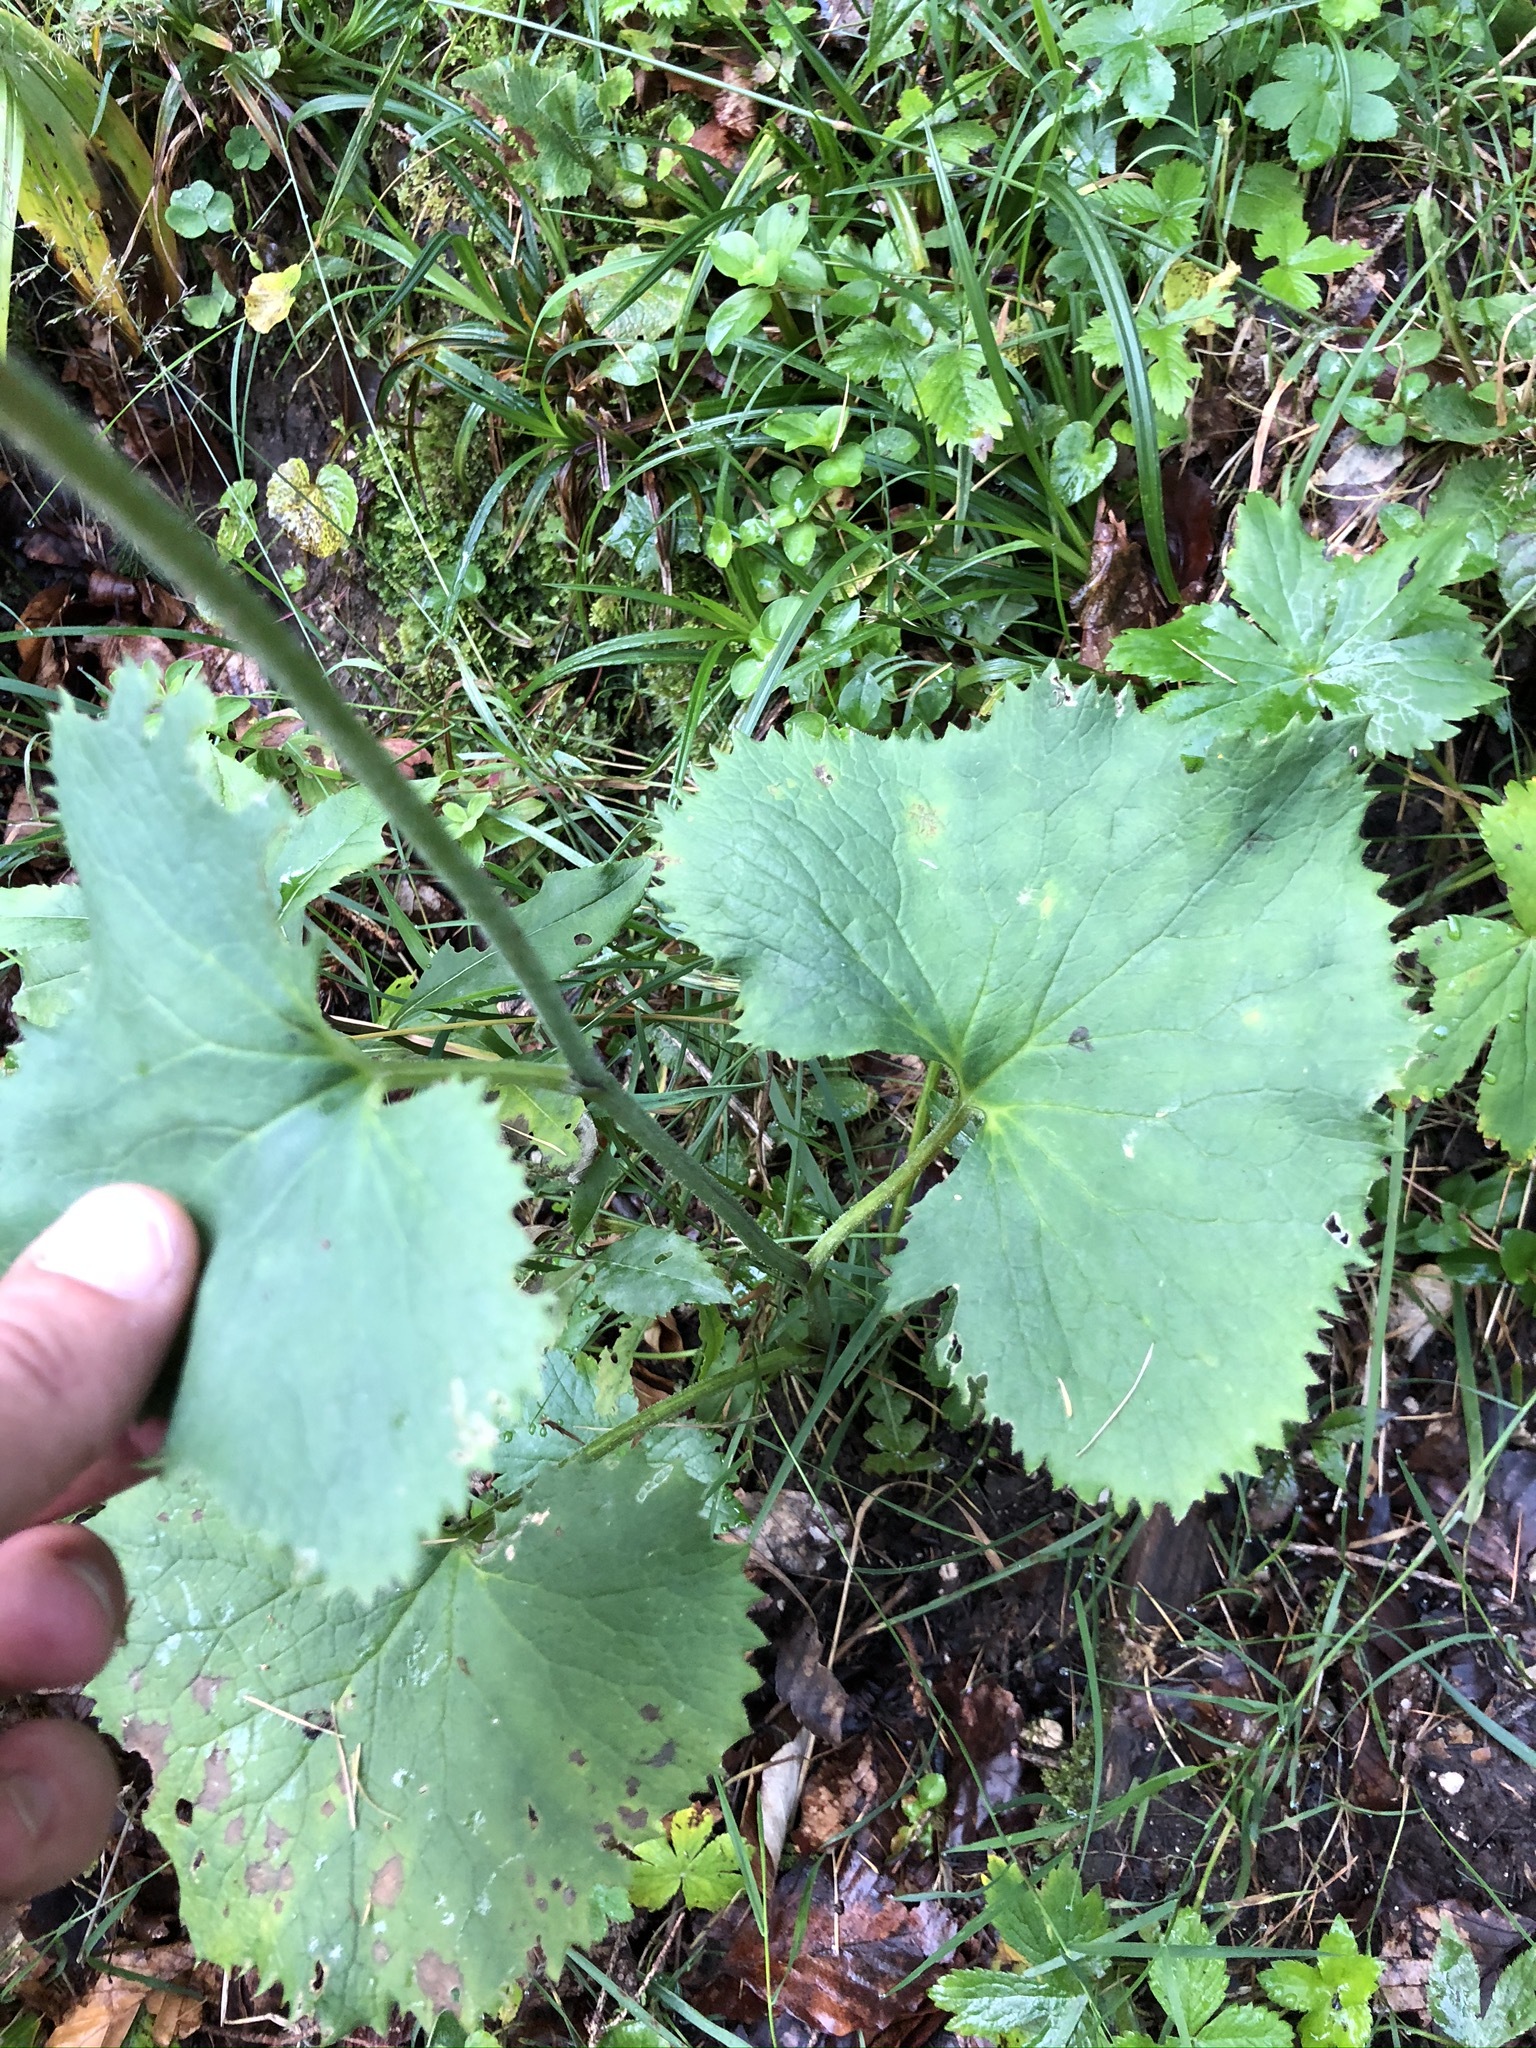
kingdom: Plantae
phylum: Tracheophyta
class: Magnoliopsida
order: Asterales
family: Asteraceae
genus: Adenostyles
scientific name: Adenostyles alpina
